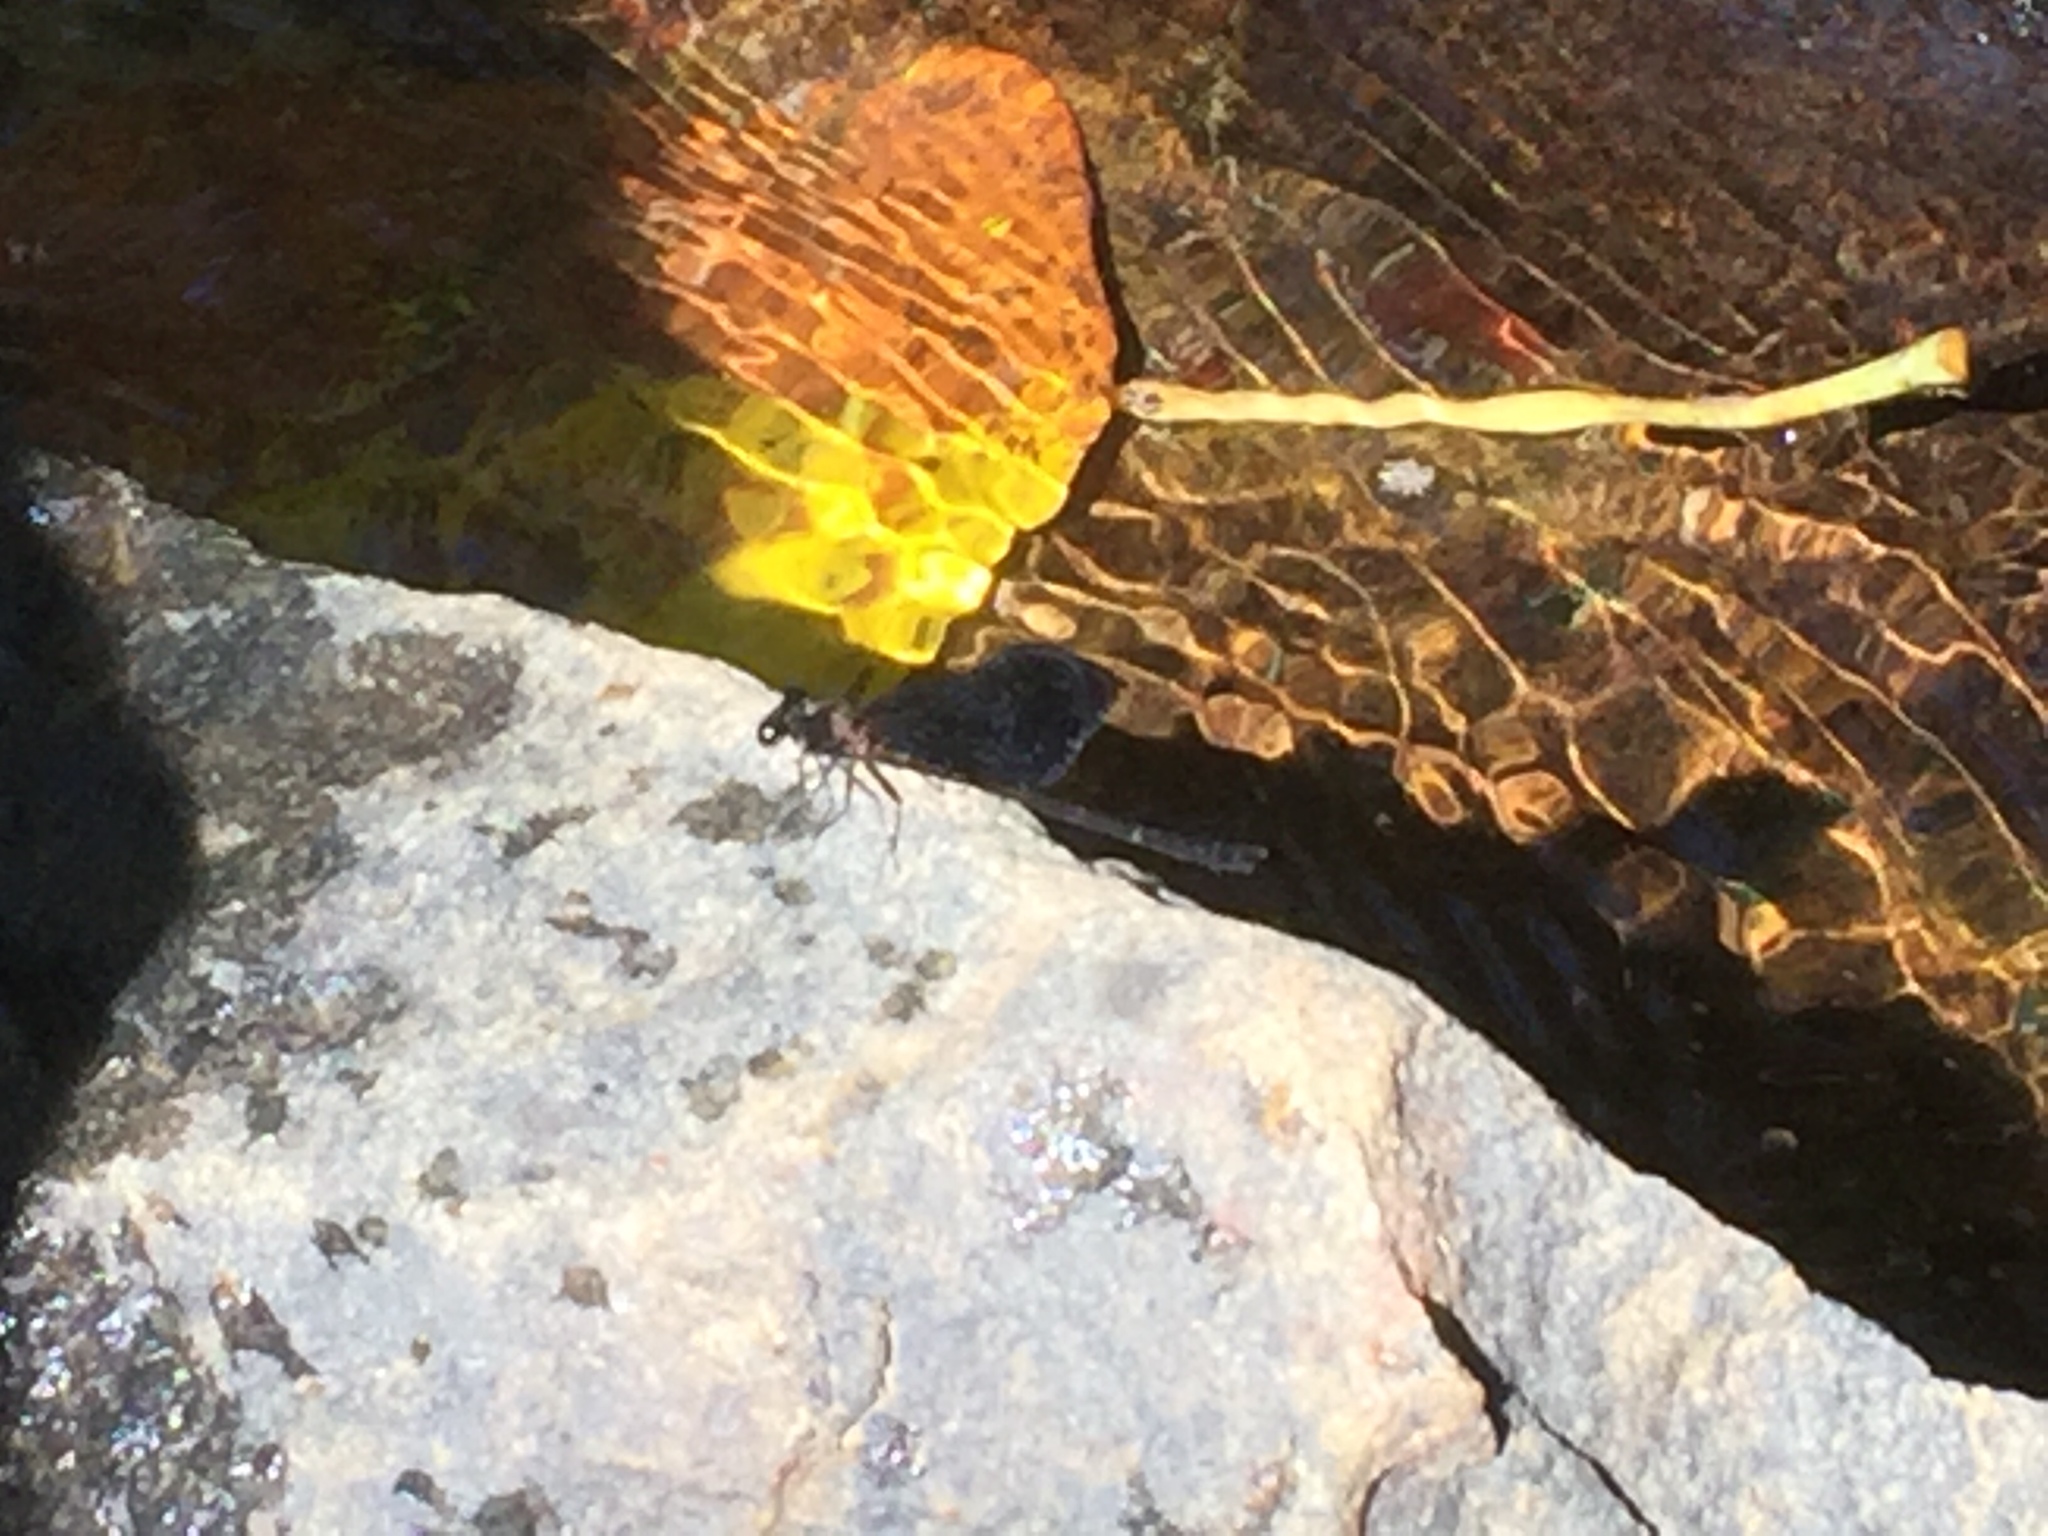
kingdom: Animalia
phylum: Arthropoda
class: Insecta
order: Odonata
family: Euphaeidae
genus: Euphaea
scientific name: Euphaea splendens
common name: Shining gossamerwing
